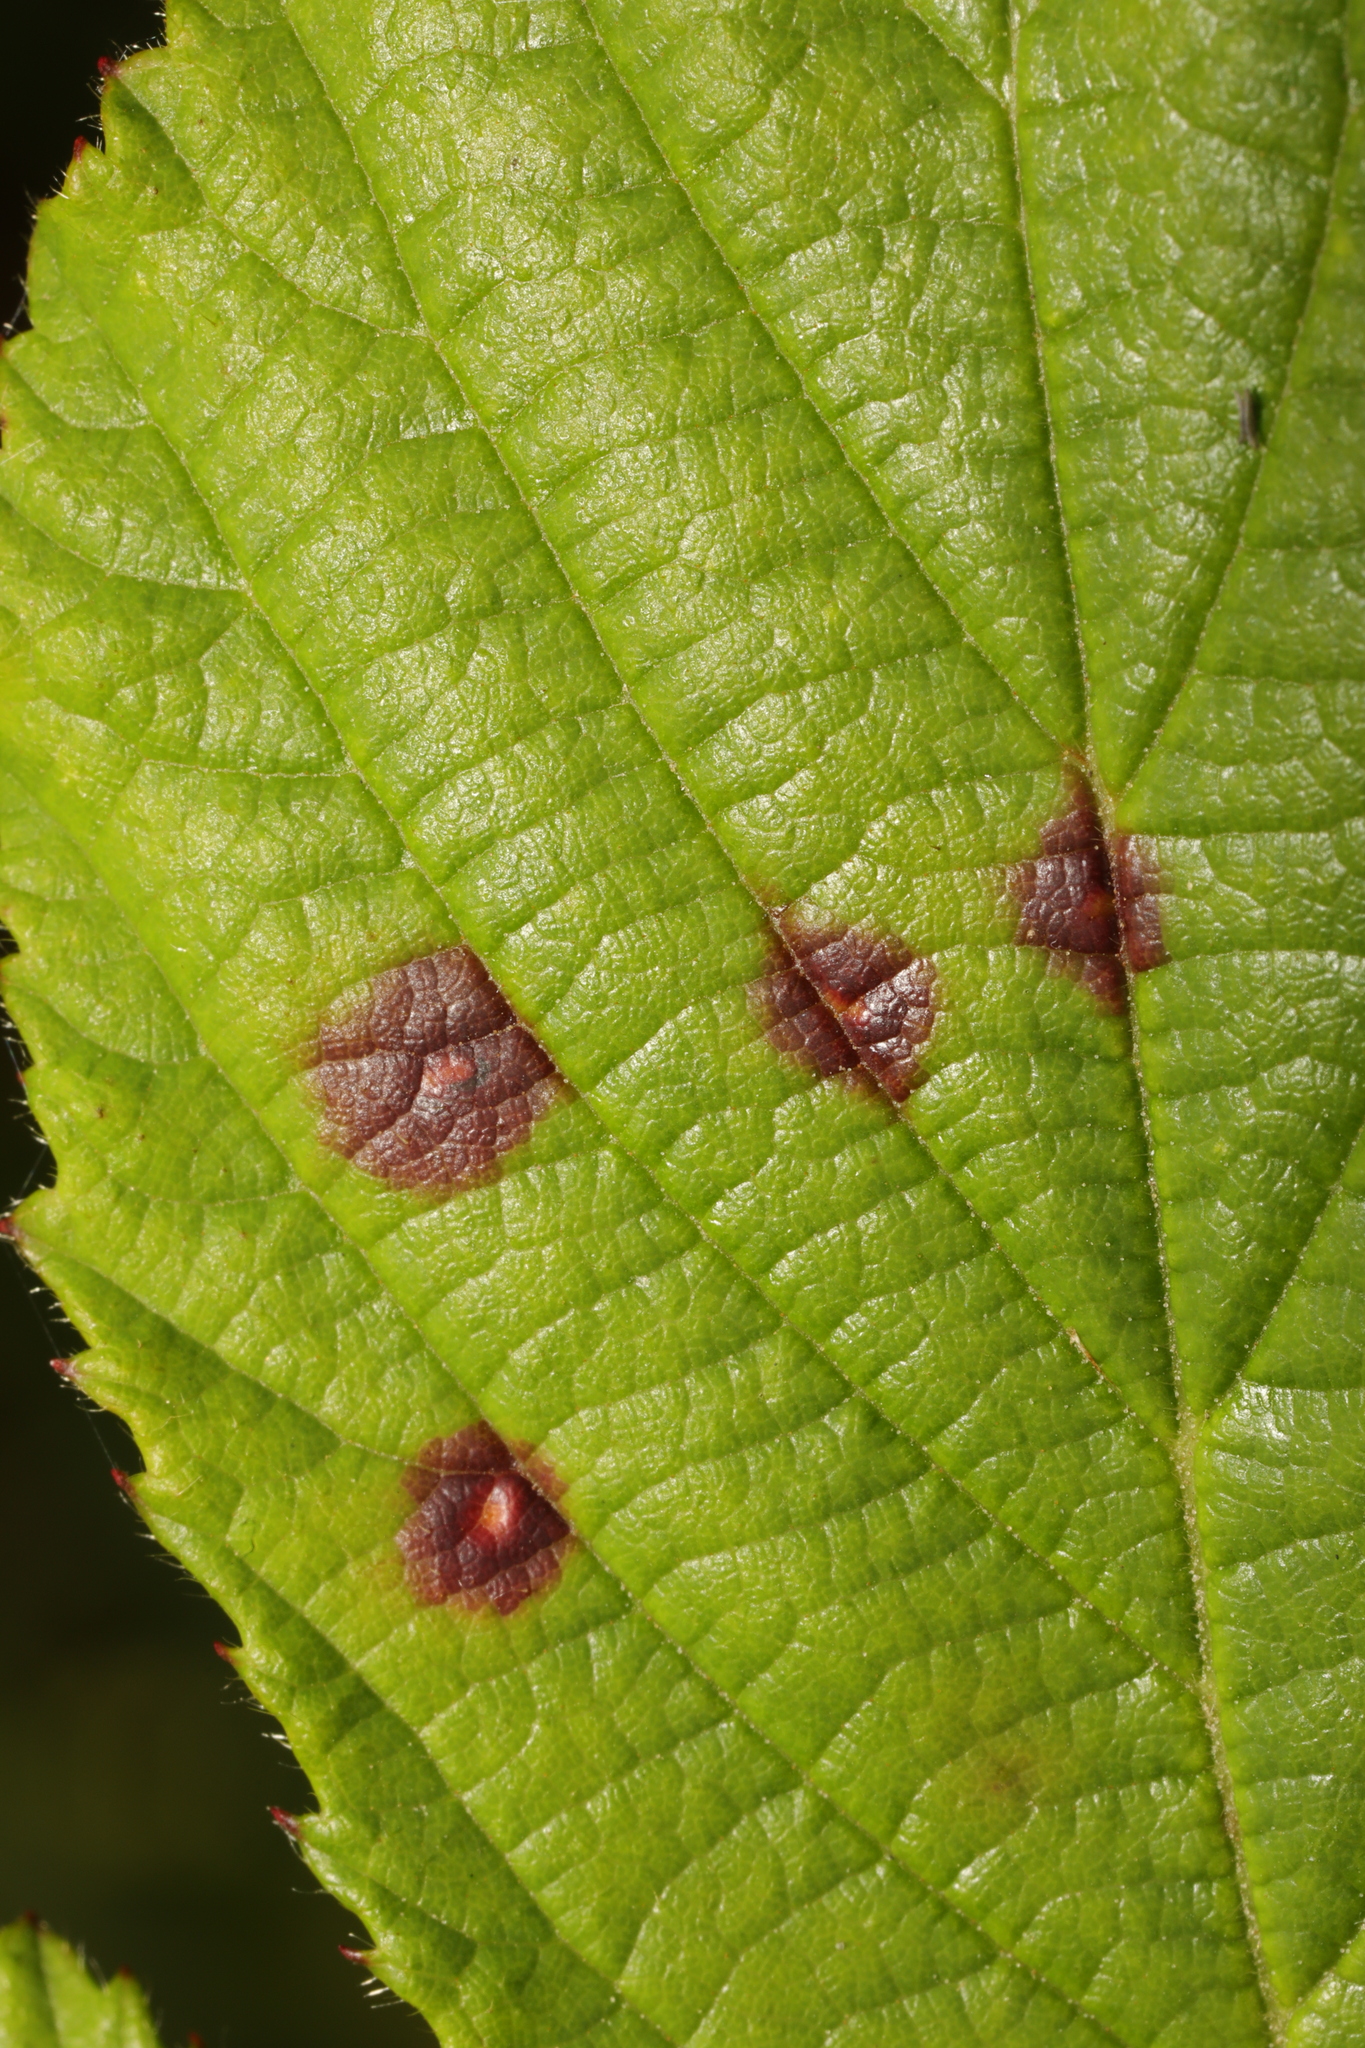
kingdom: Fungi
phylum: Basidiomycota
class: Pucciniomycetes
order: Pucciniales
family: Phragmidiaceae
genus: Phragmidium
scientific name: Phragmidium violaceum
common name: Violet bramble rust
